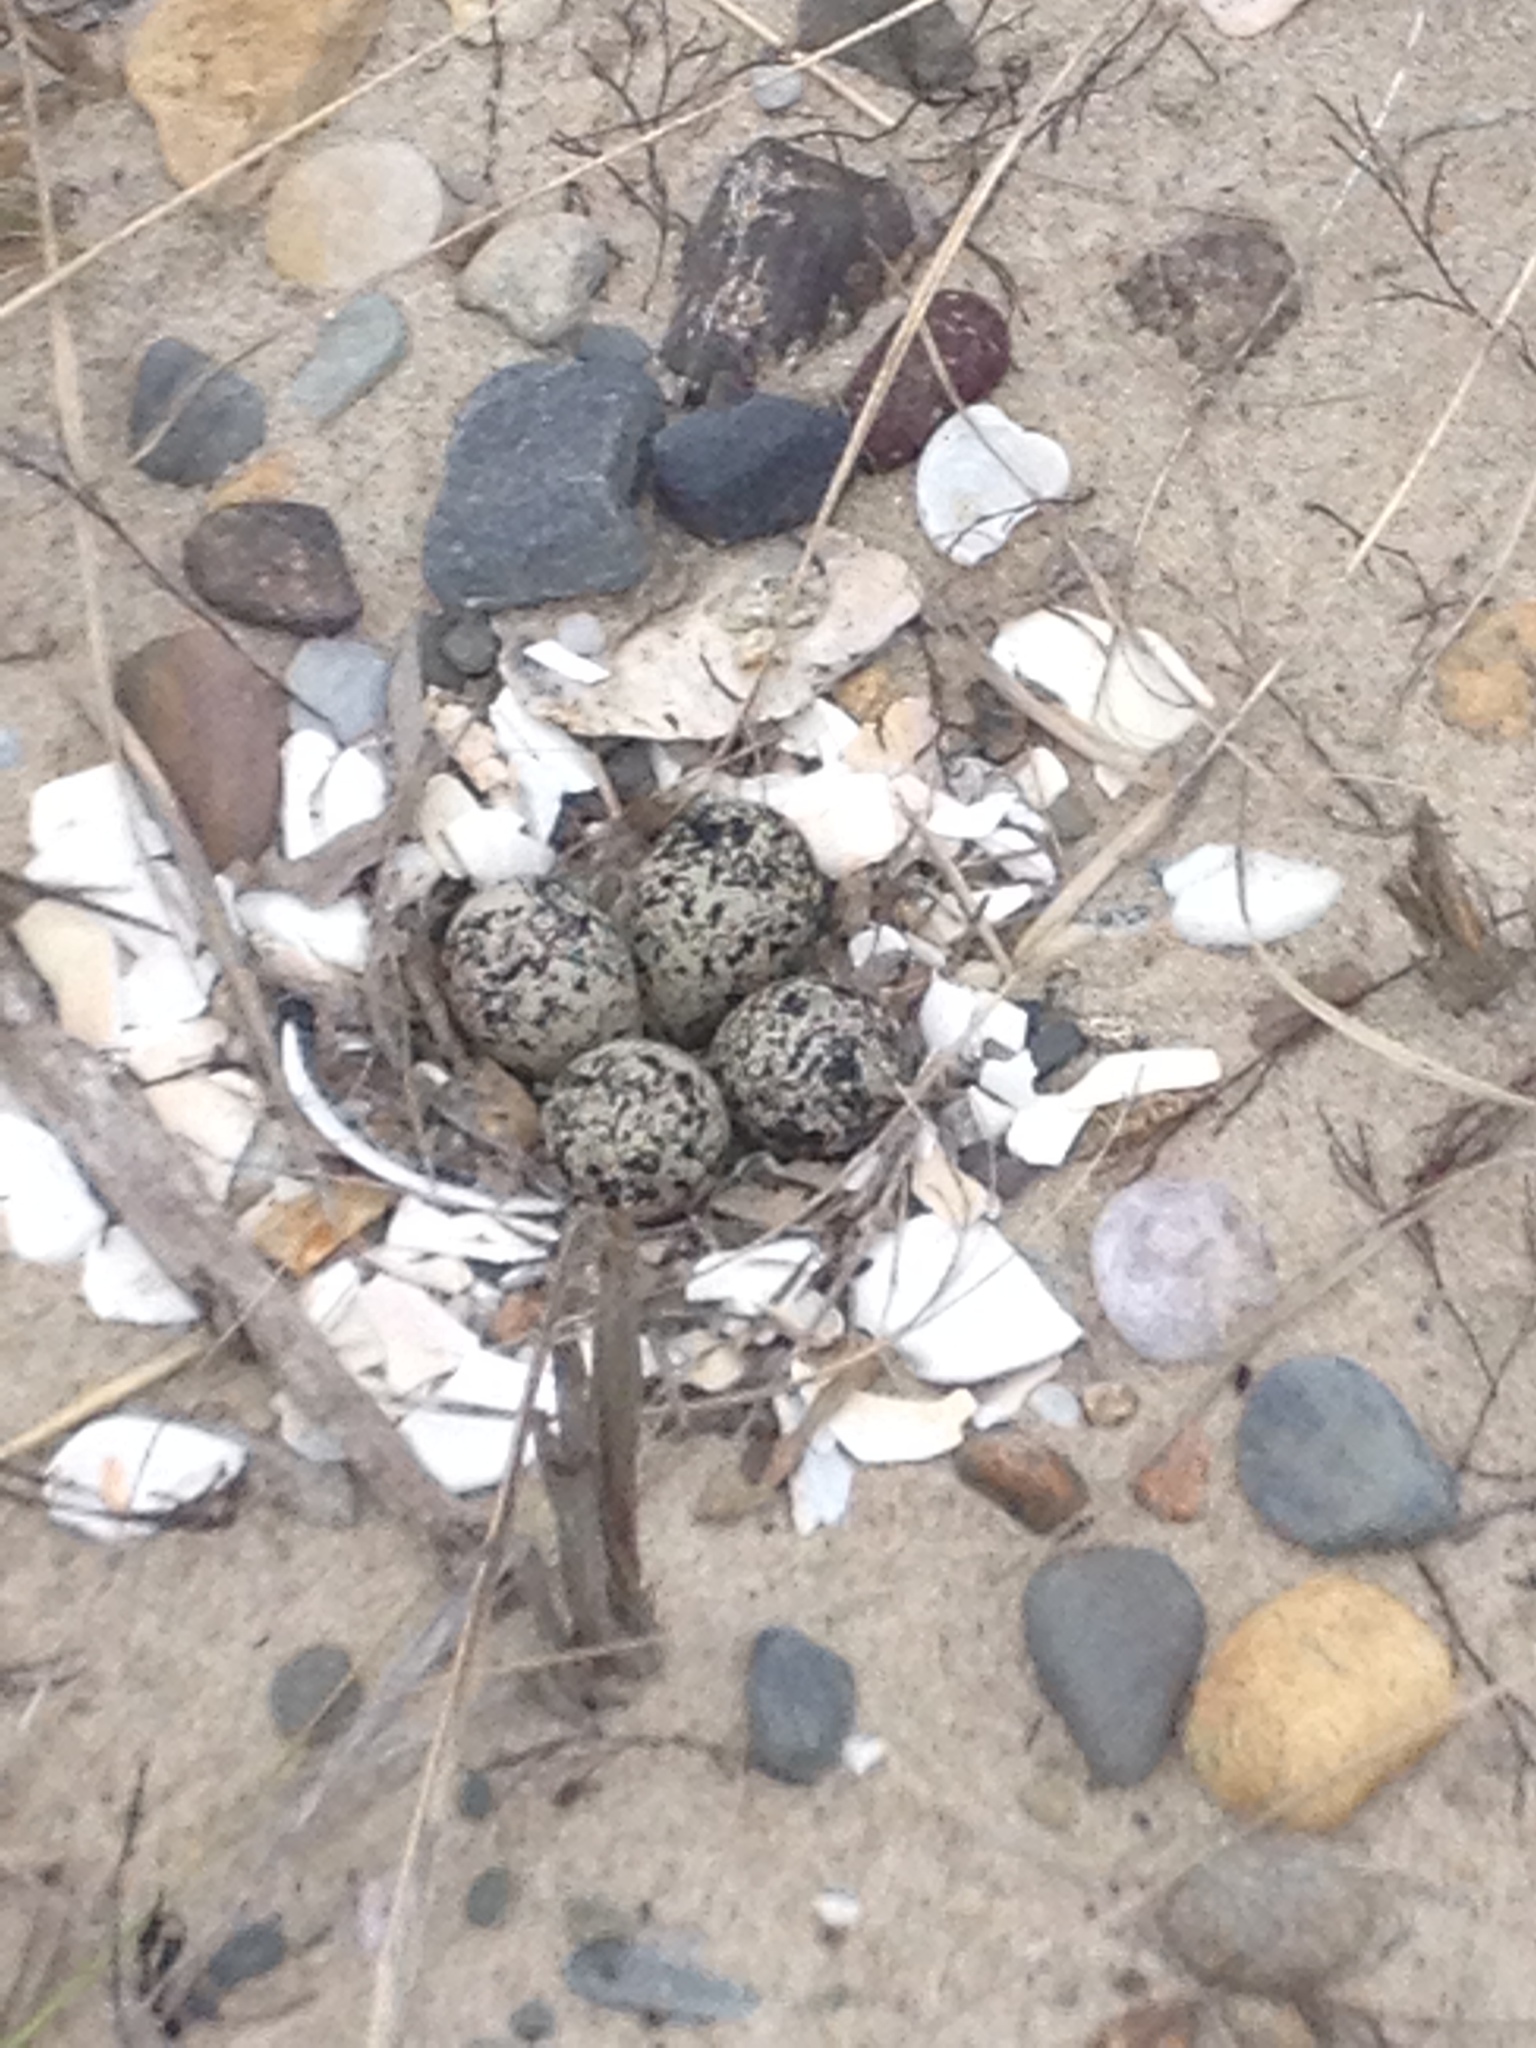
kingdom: Animalia
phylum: Chordata
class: Aves
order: Charadriiformes
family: Charadriidae
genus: Charadrius
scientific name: Charadrius vociferus
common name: Killdeer
